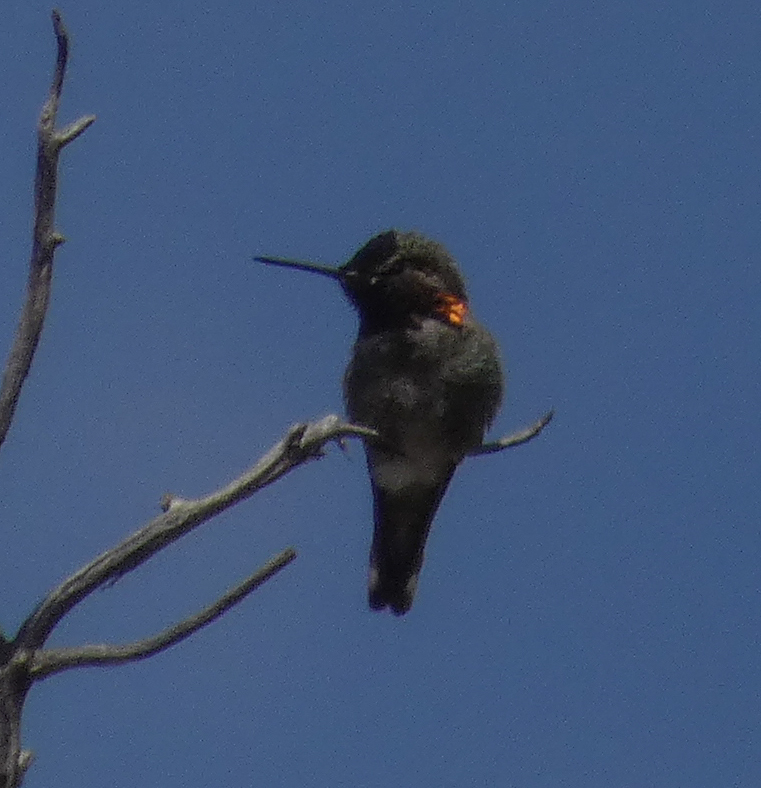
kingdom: Animalia
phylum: Chordata
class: Aves
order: Apodiformes
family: Trochilidae
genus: Calypte
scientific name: Calypte anna
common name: Anna's hummingbird
